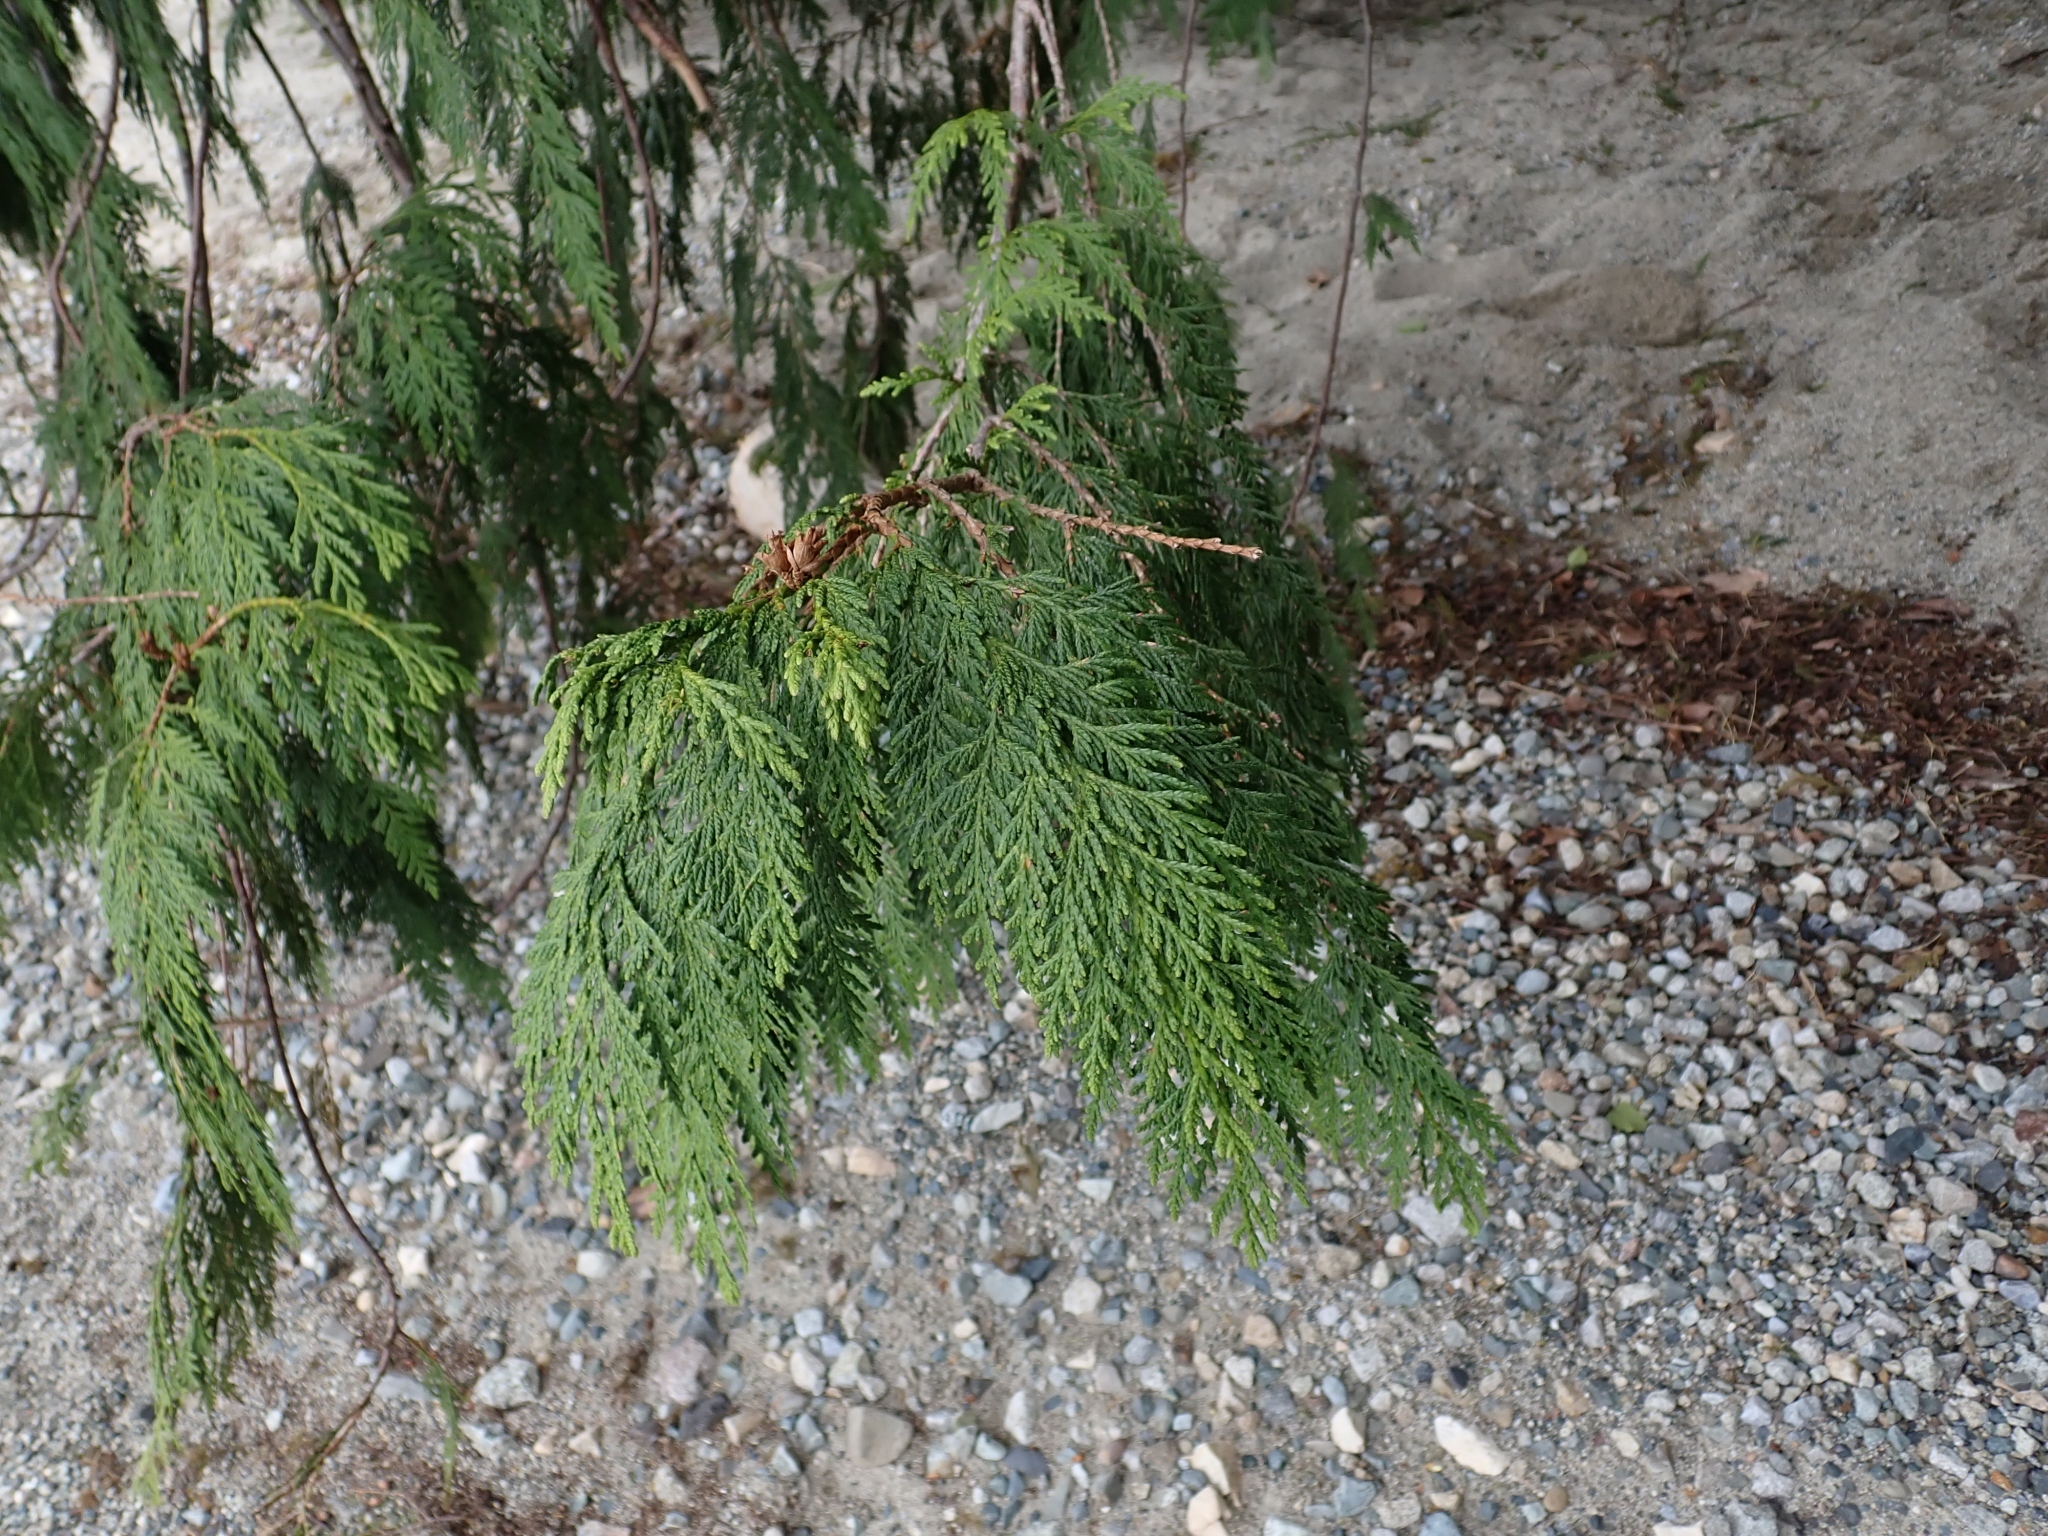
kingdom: Plantae
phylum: Tracheophyta
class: Pinopsida
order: Pinales
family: Cupressaceae
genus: Thuja
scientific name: Thuja plicata
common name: Western red-cedar
